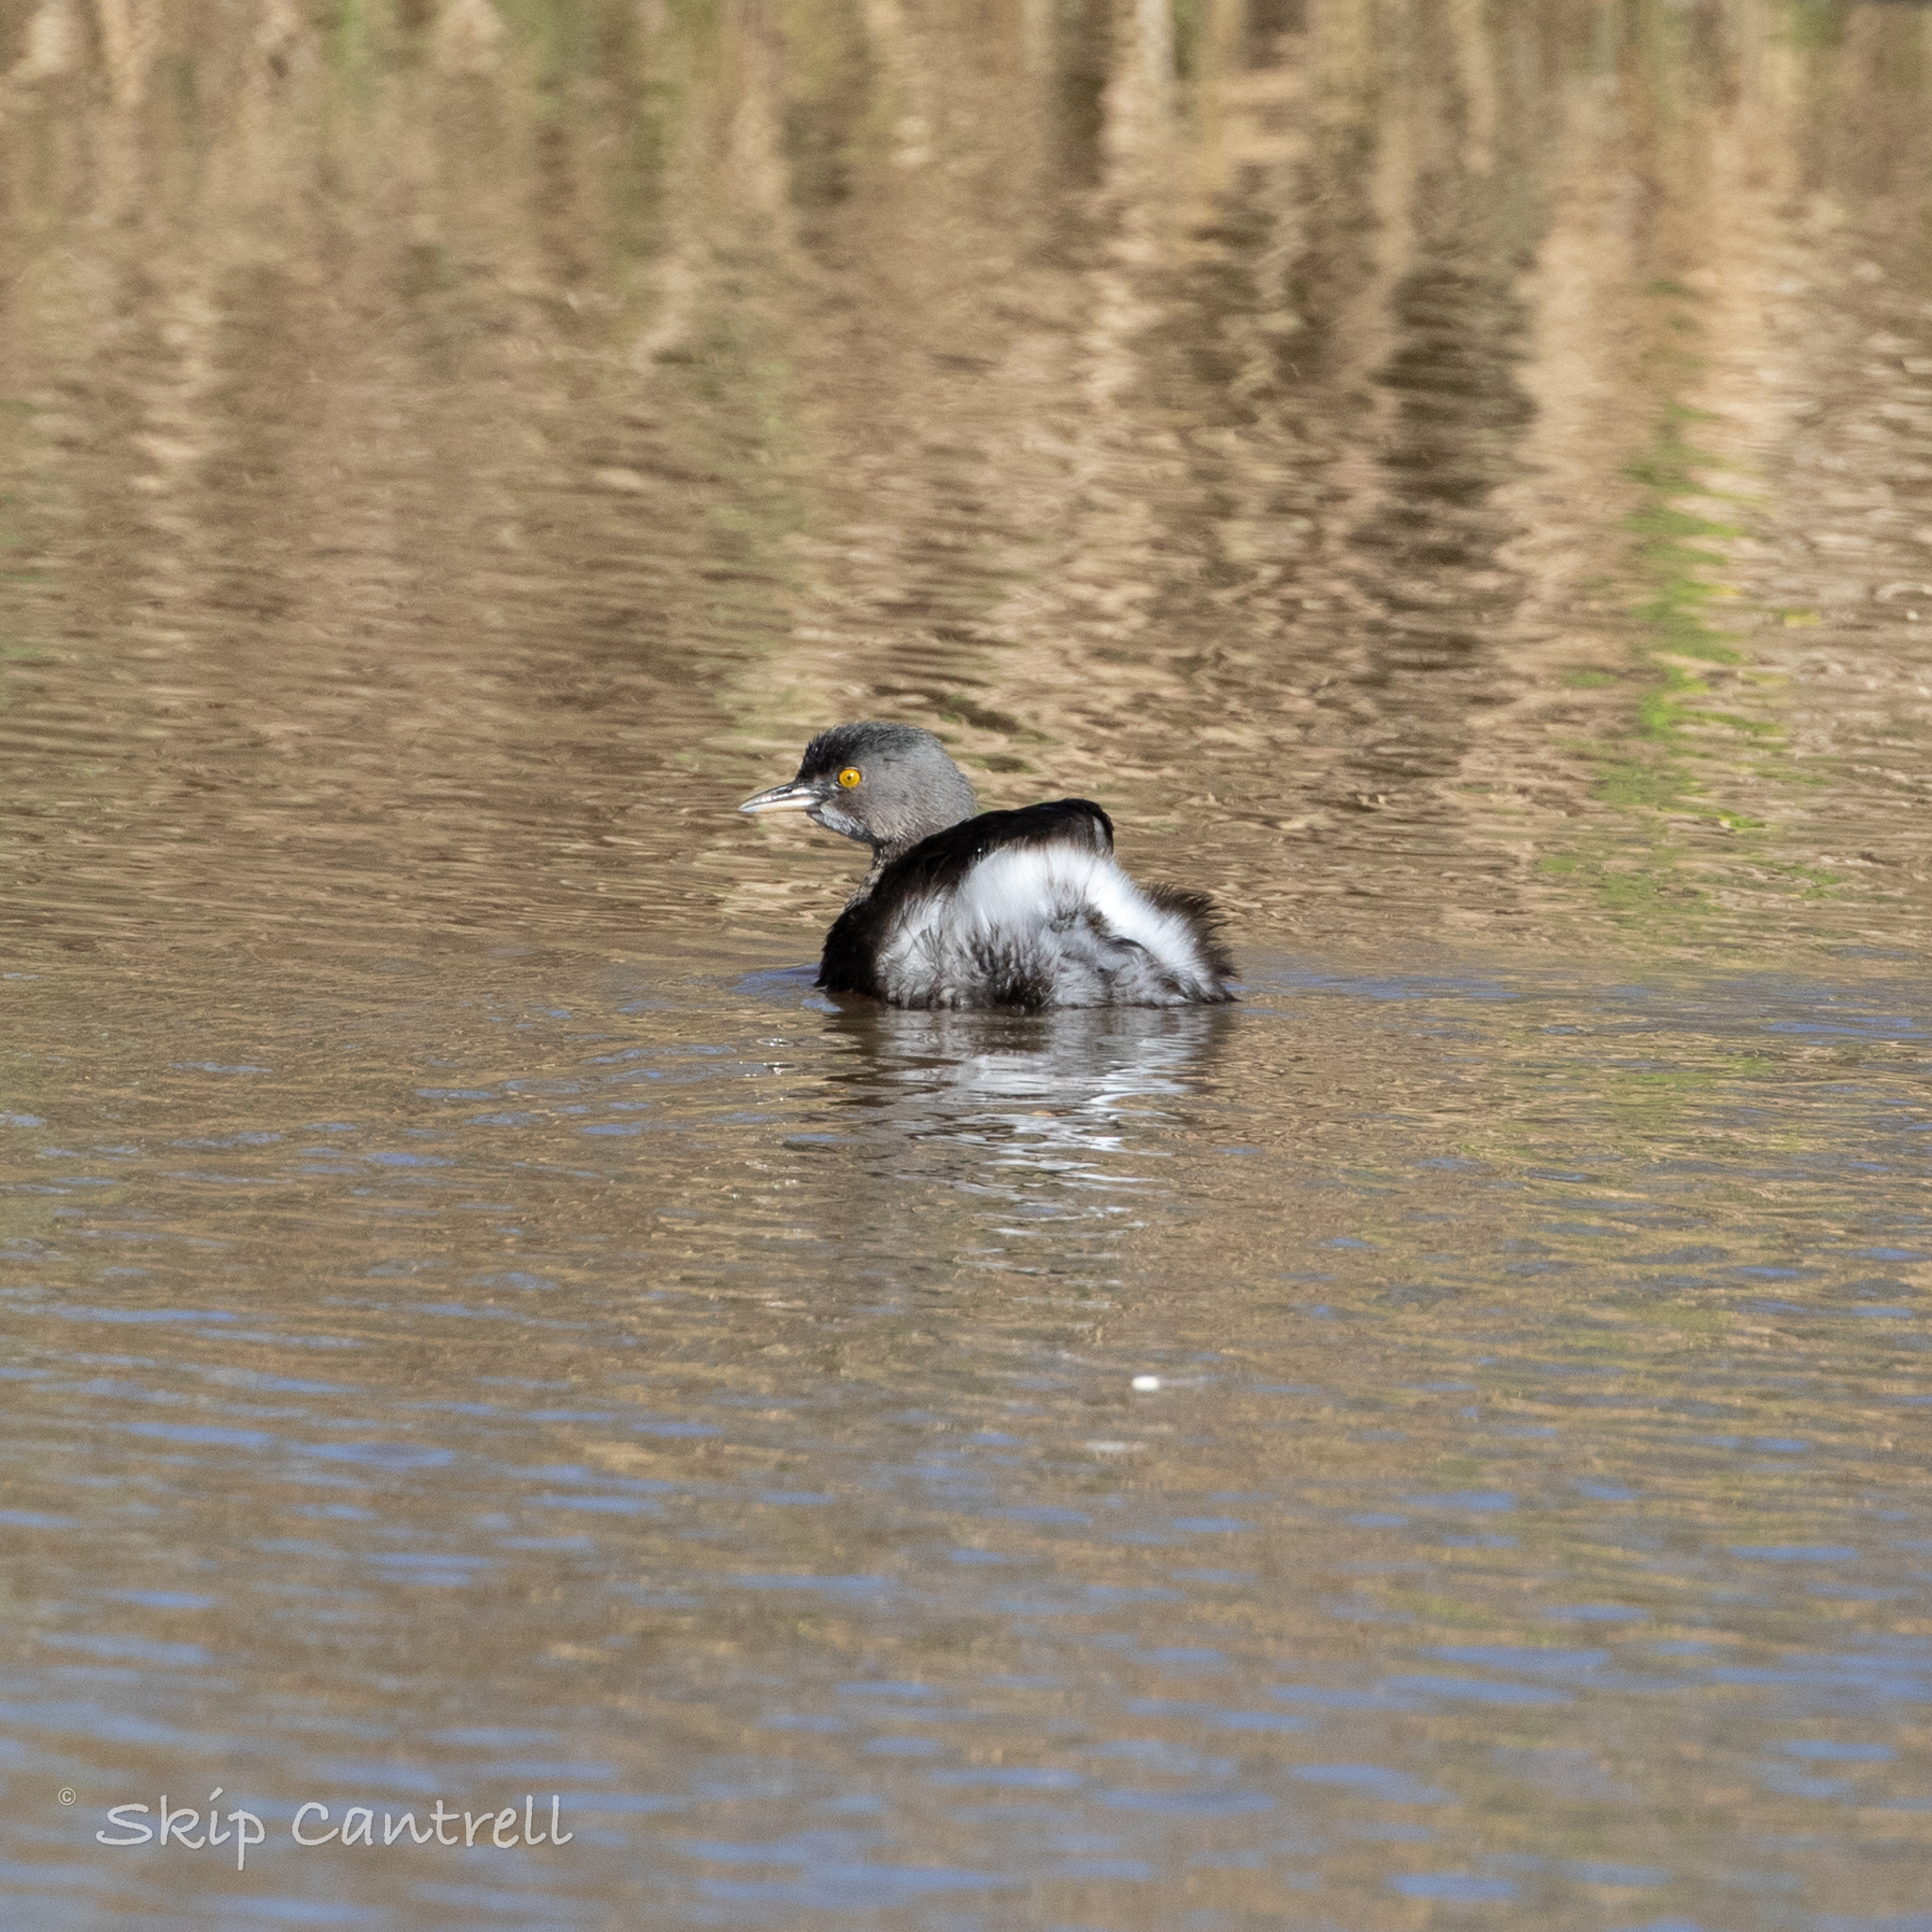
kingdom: Animalia
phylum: Chordata
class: Aves
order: Podicipediformes
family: Podicipedidae
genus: Tachybaptus
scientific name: Tachybaptus dominicus
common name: Least grebe
